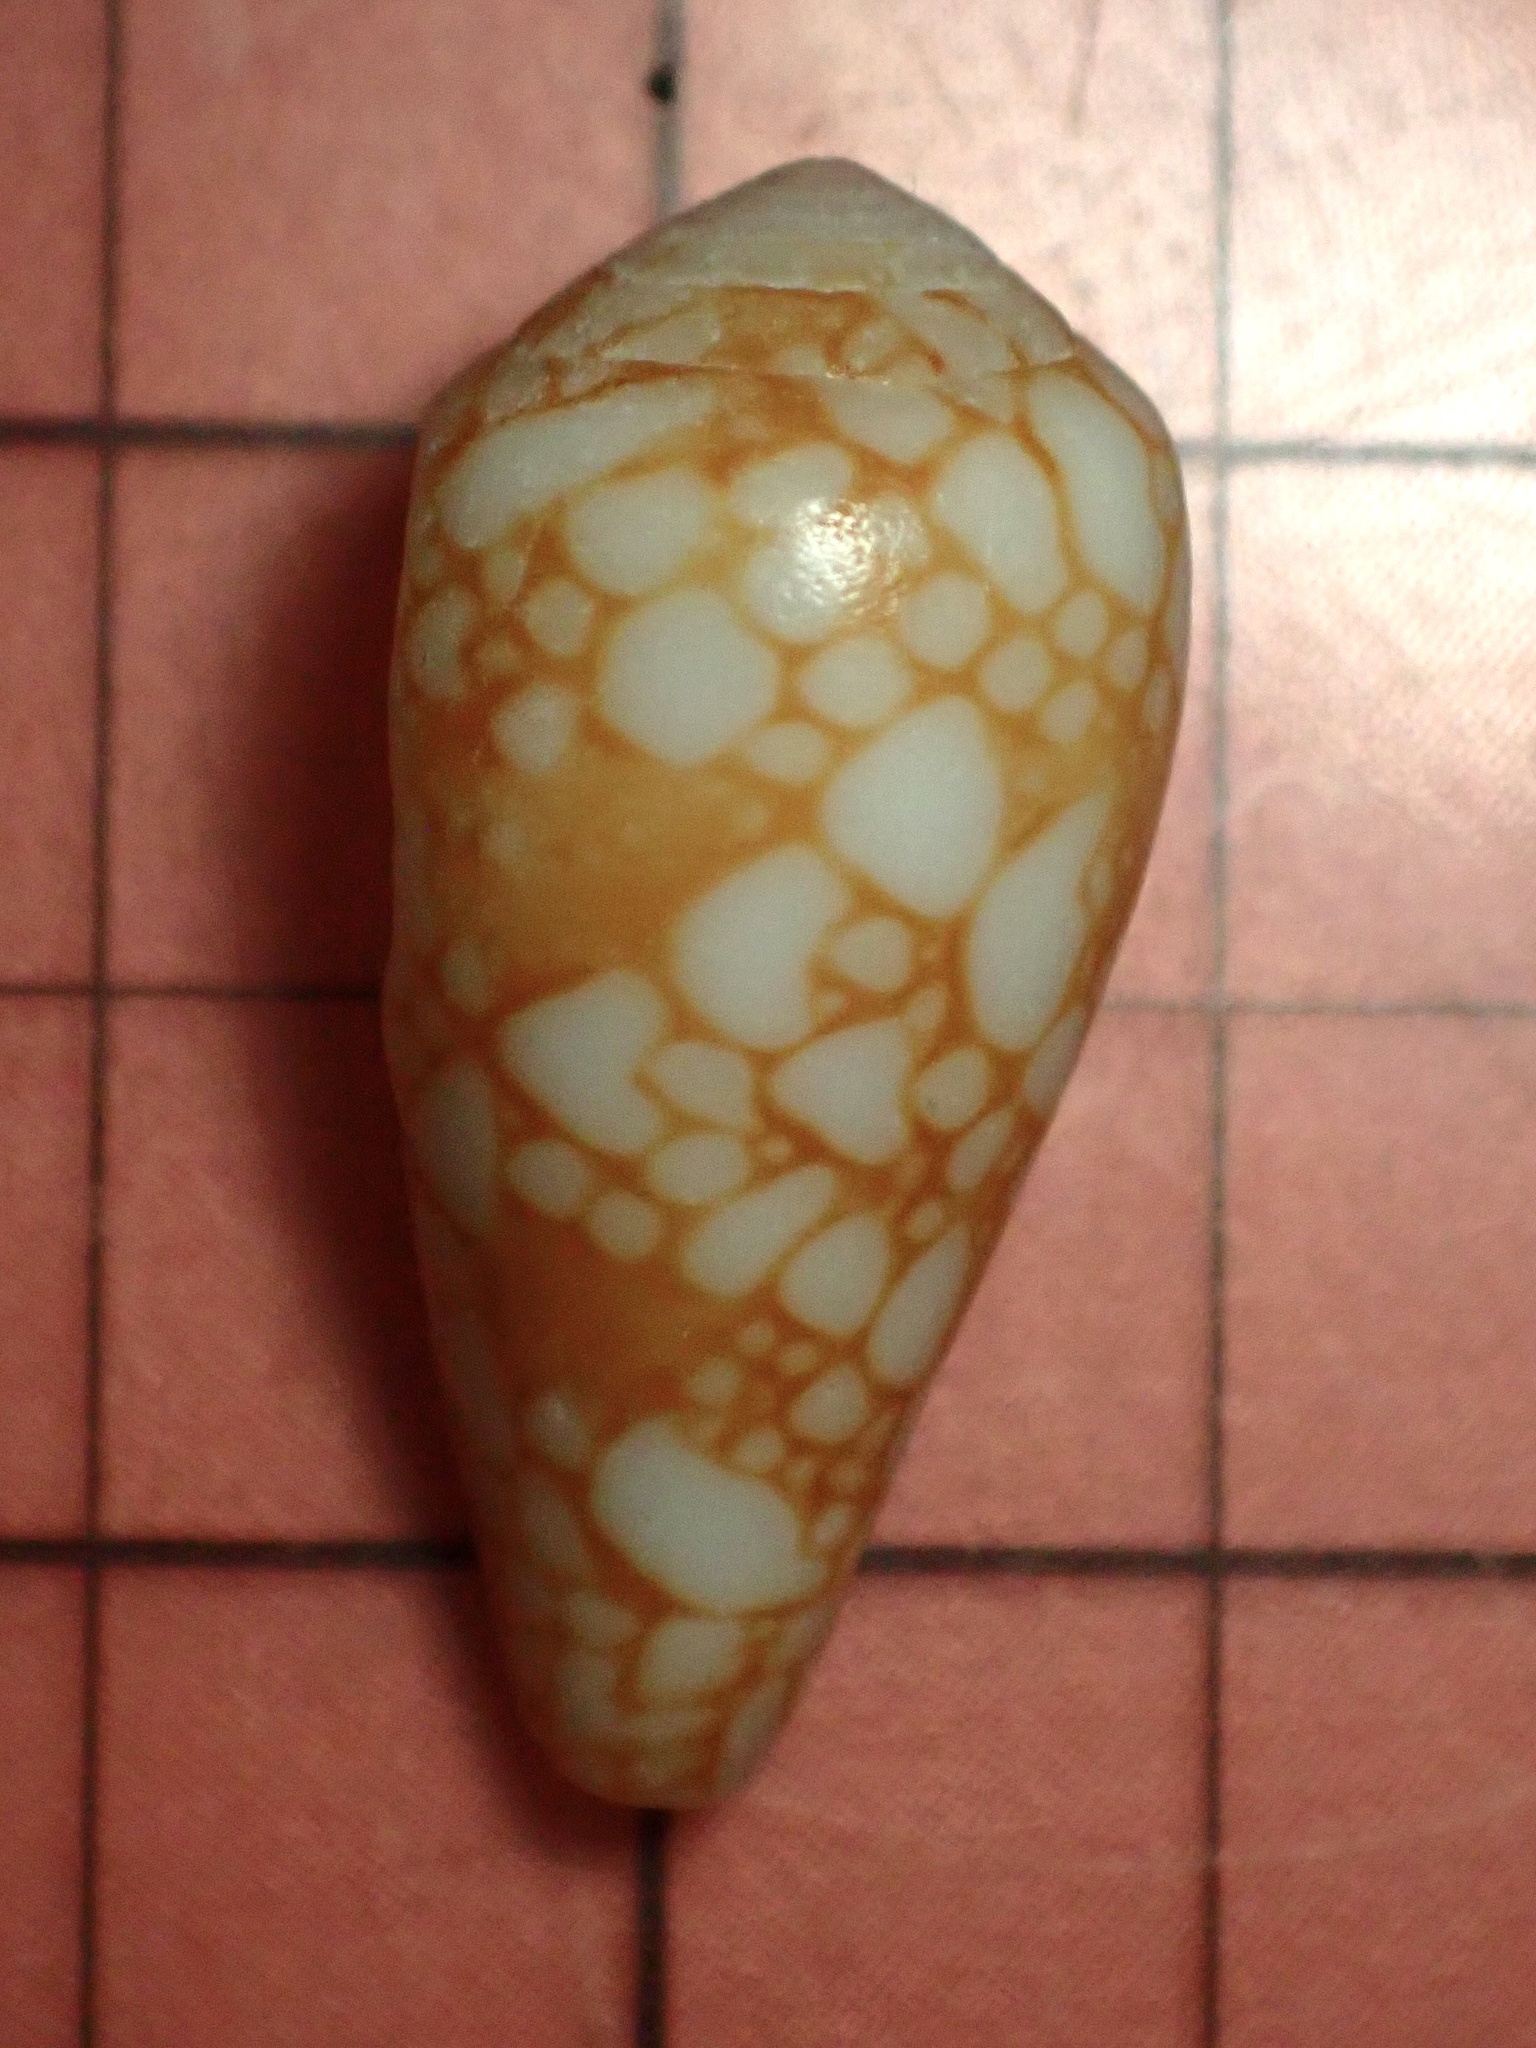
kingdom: Animalia
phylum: Mollusca
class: Gastropoda
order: Neogastropoda
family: Conidae
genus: Conus
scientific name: Conus purus
